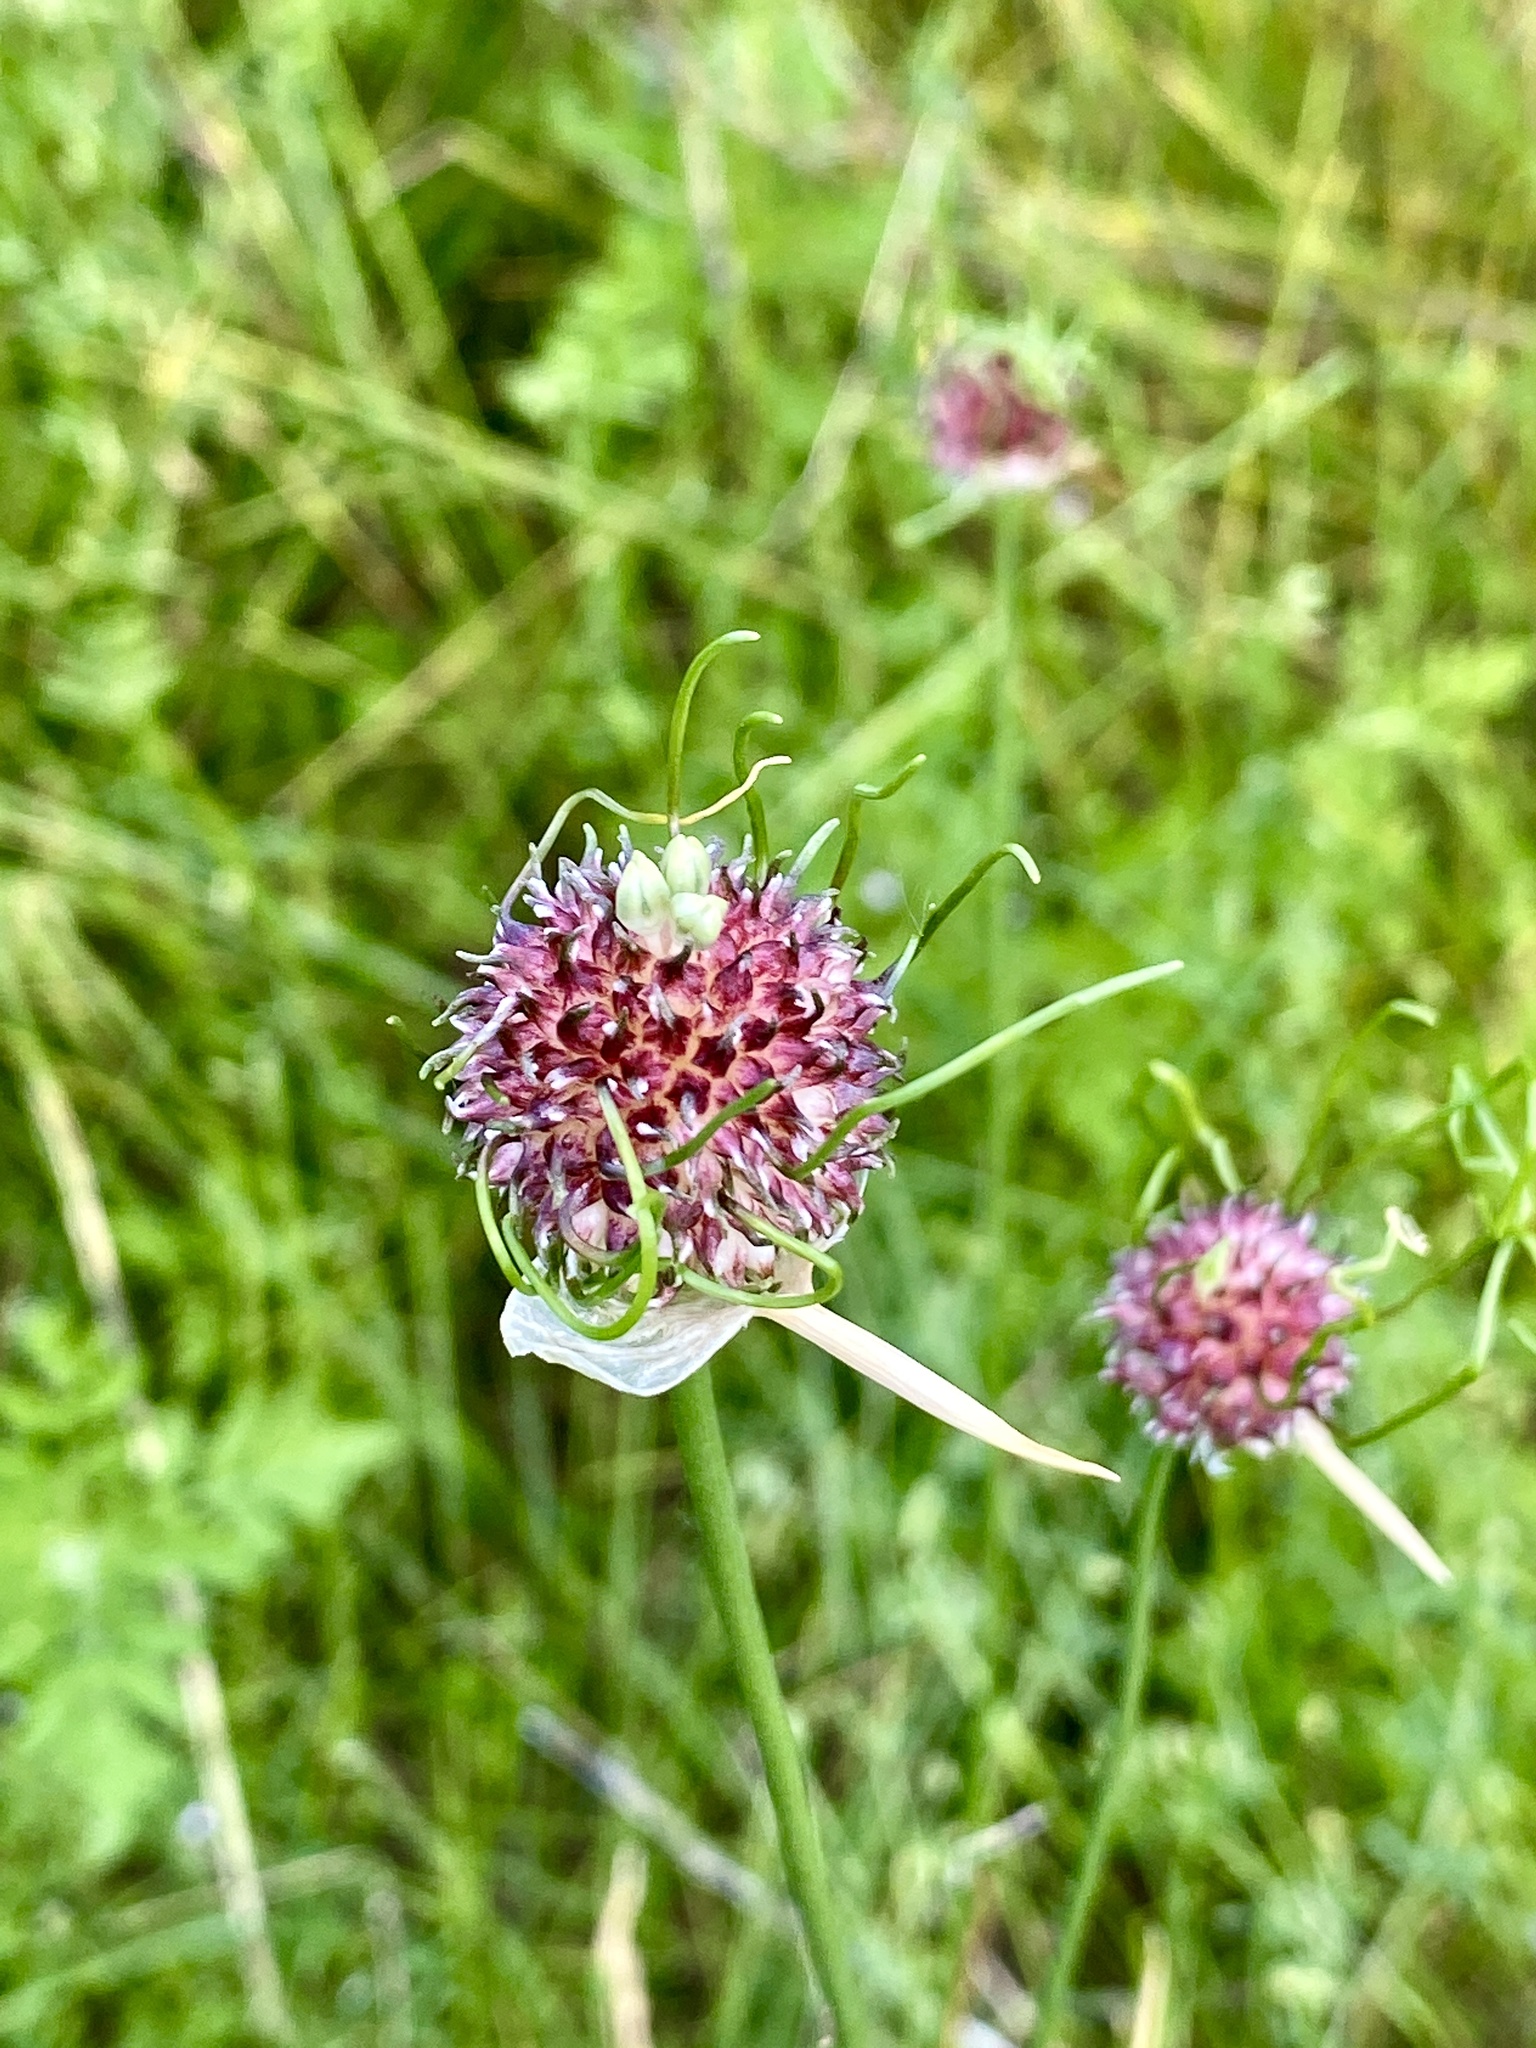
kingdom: Plantae
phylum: Tracheophyta
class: Liliopsida
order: Asparagales
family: Amaryllidaceae
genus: Allium
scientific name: Allium vineale
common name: Crow garlic
